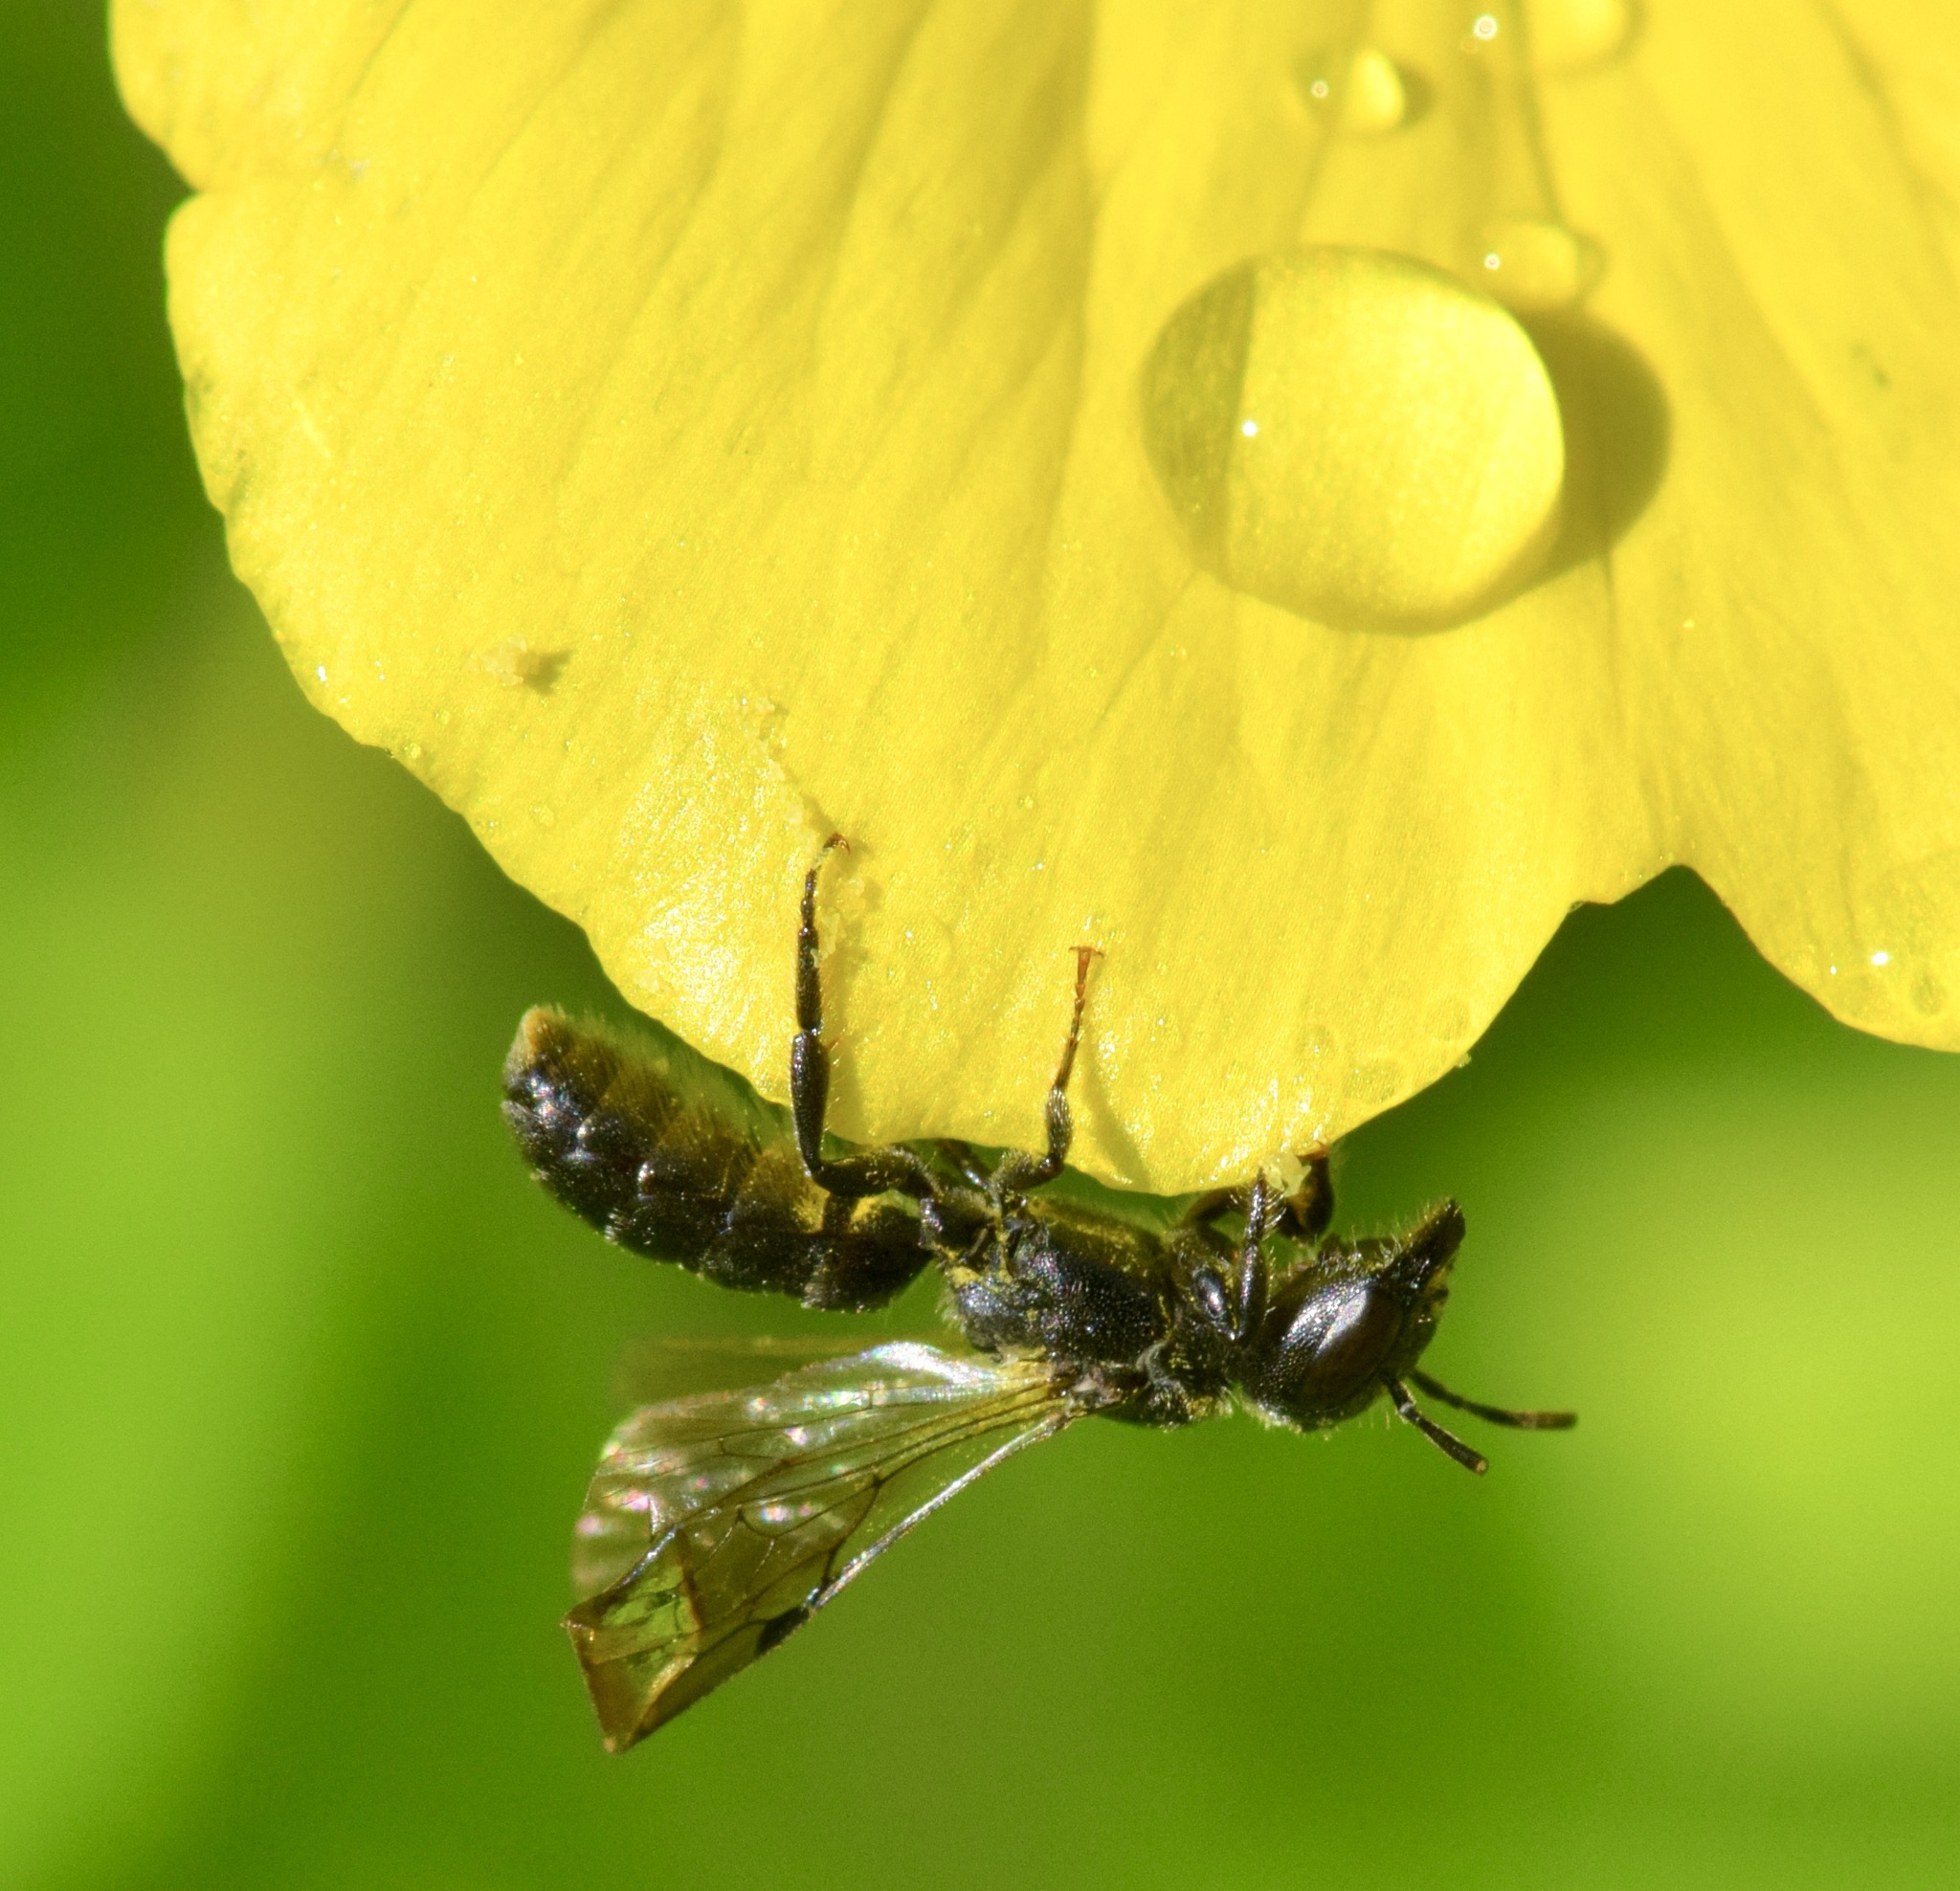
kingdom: Animalia
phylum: Arthropoda
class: Insecta
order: Hymenoptera
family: Megachilidae
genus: Chelostoma
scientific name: Chelostoma philadelphi
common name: Mock-orange scissor bee
